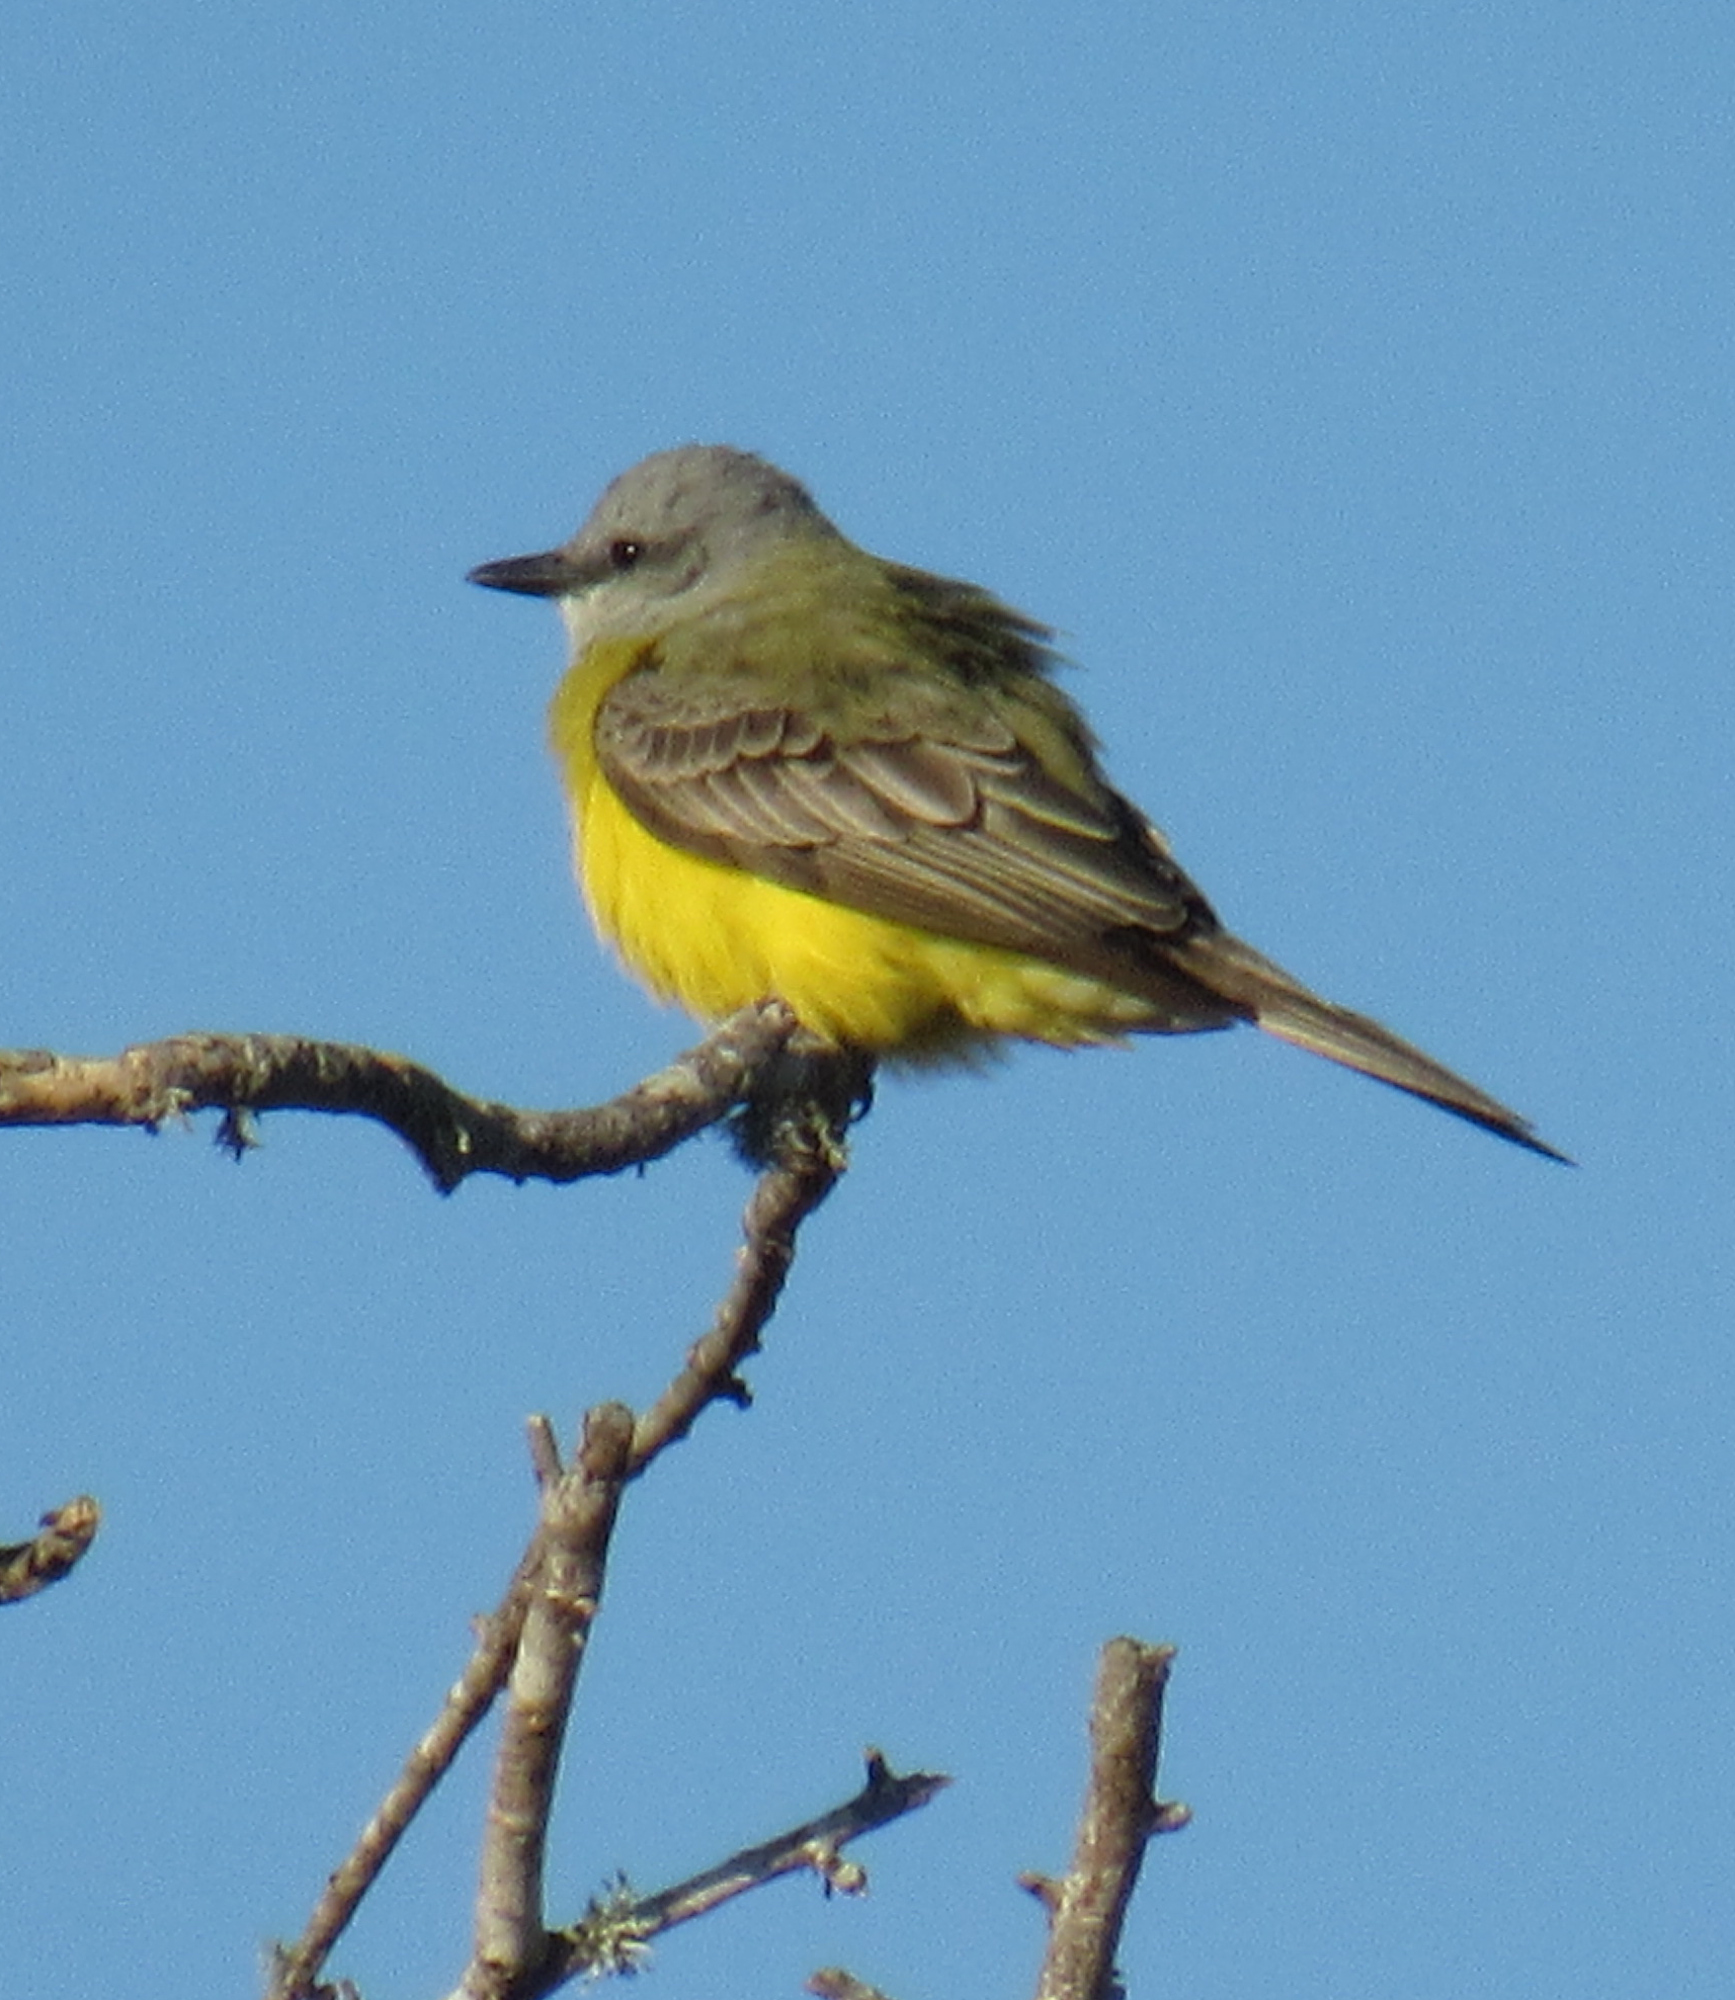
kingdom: Animalia
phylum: Chordata
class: Aves
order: Passeriformes
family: Tyrannidae
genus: Tyrannus
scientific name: Tyrannus couchii
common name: Couch's kingbird
